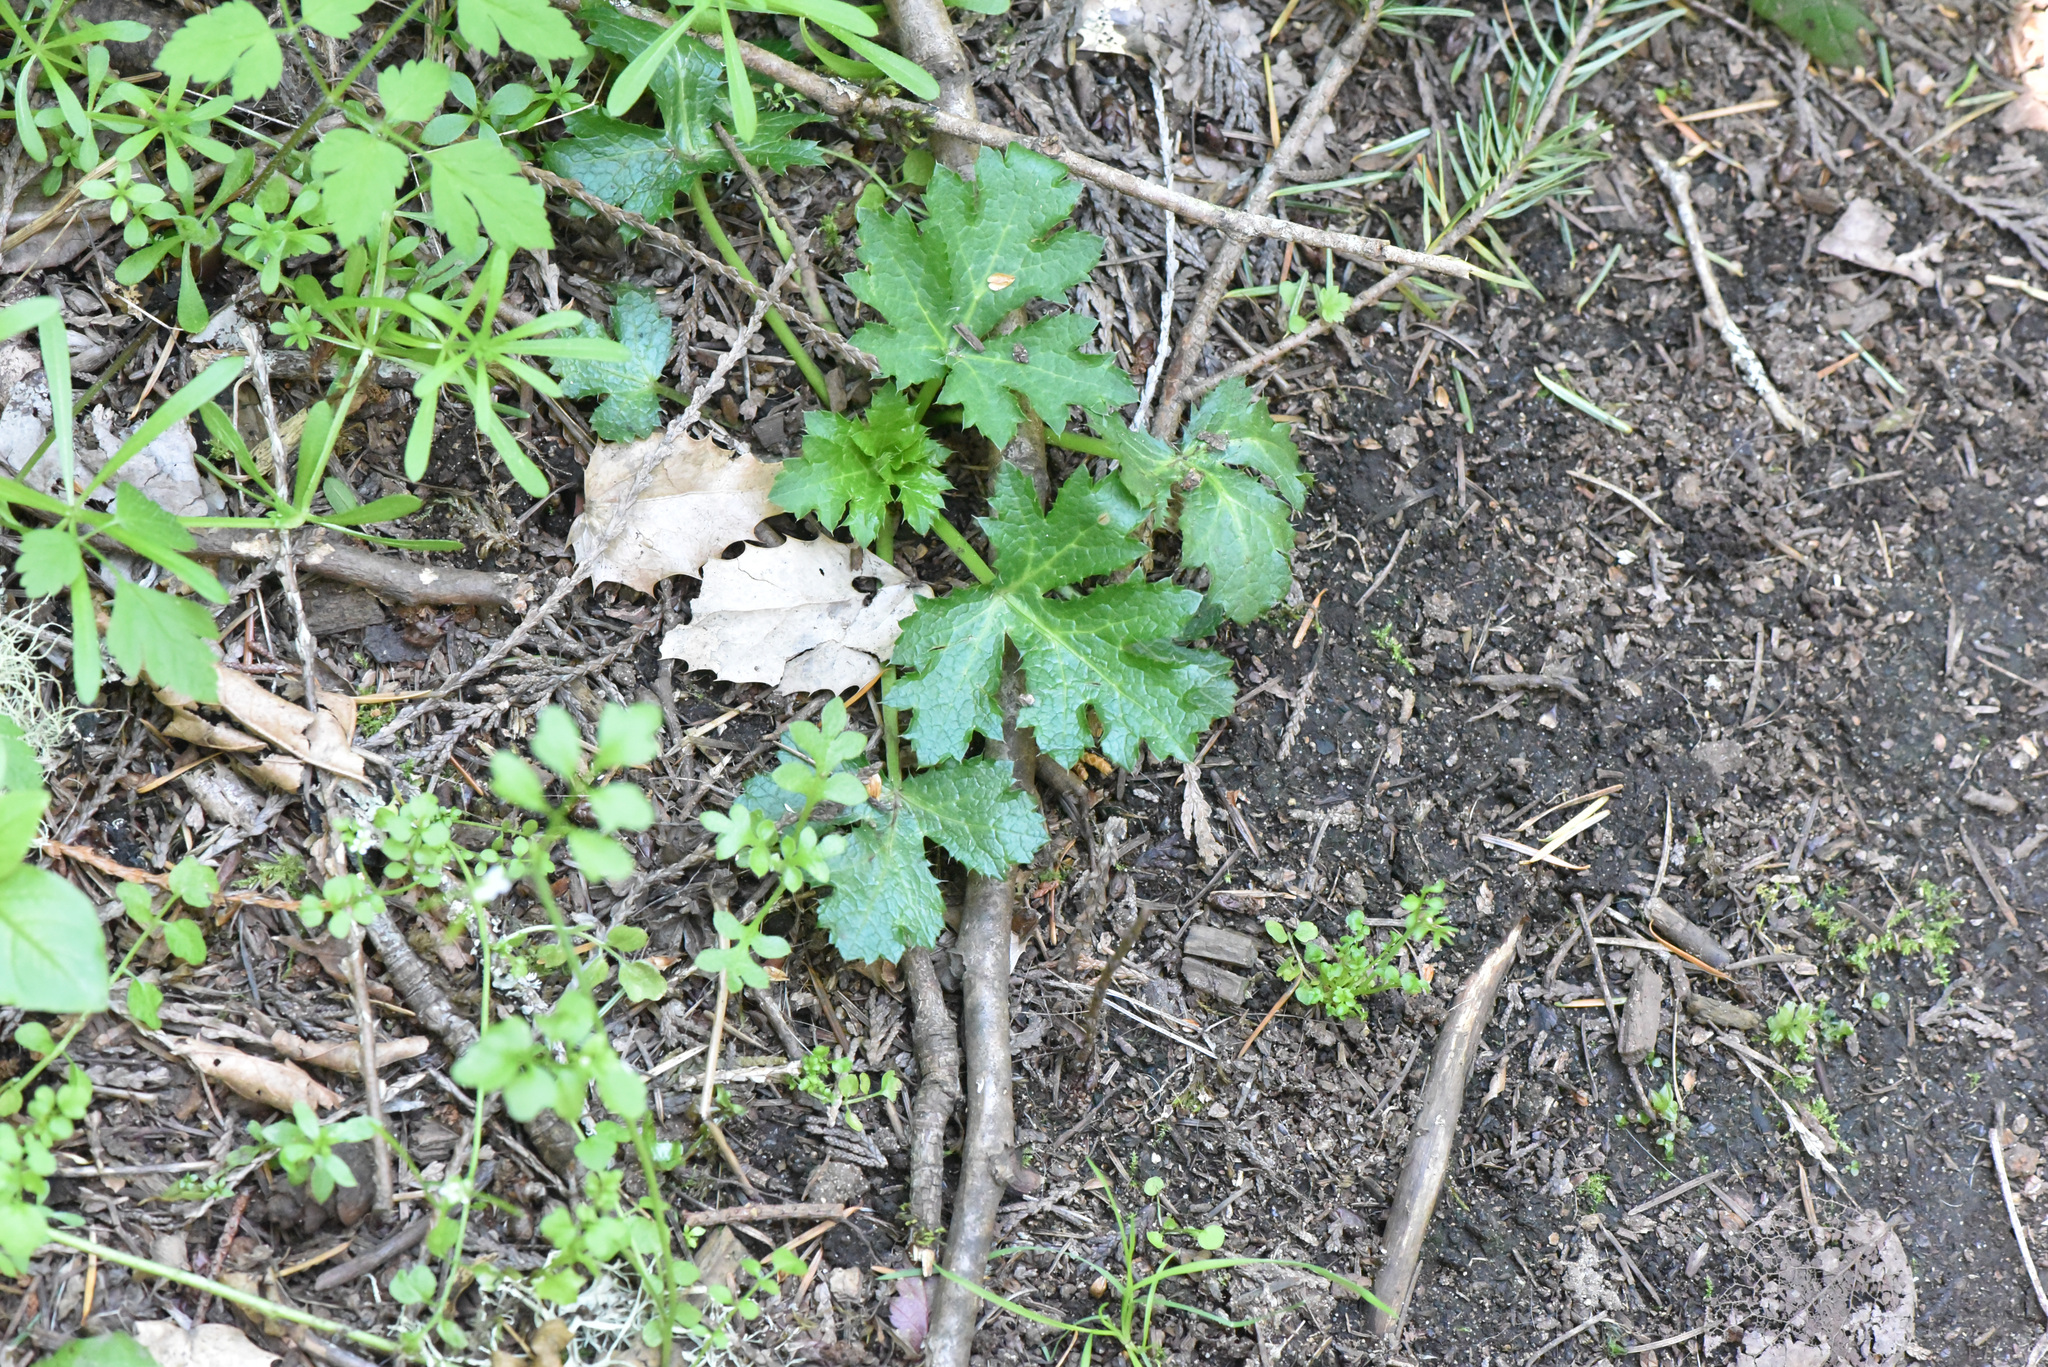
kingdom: Plantae
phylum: Tracheophyta
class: Magnoliopsida
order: Apiales
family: Apiaceae
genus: Sanicula
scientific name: Sanicula crassicaulis
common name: Western snakeroot
